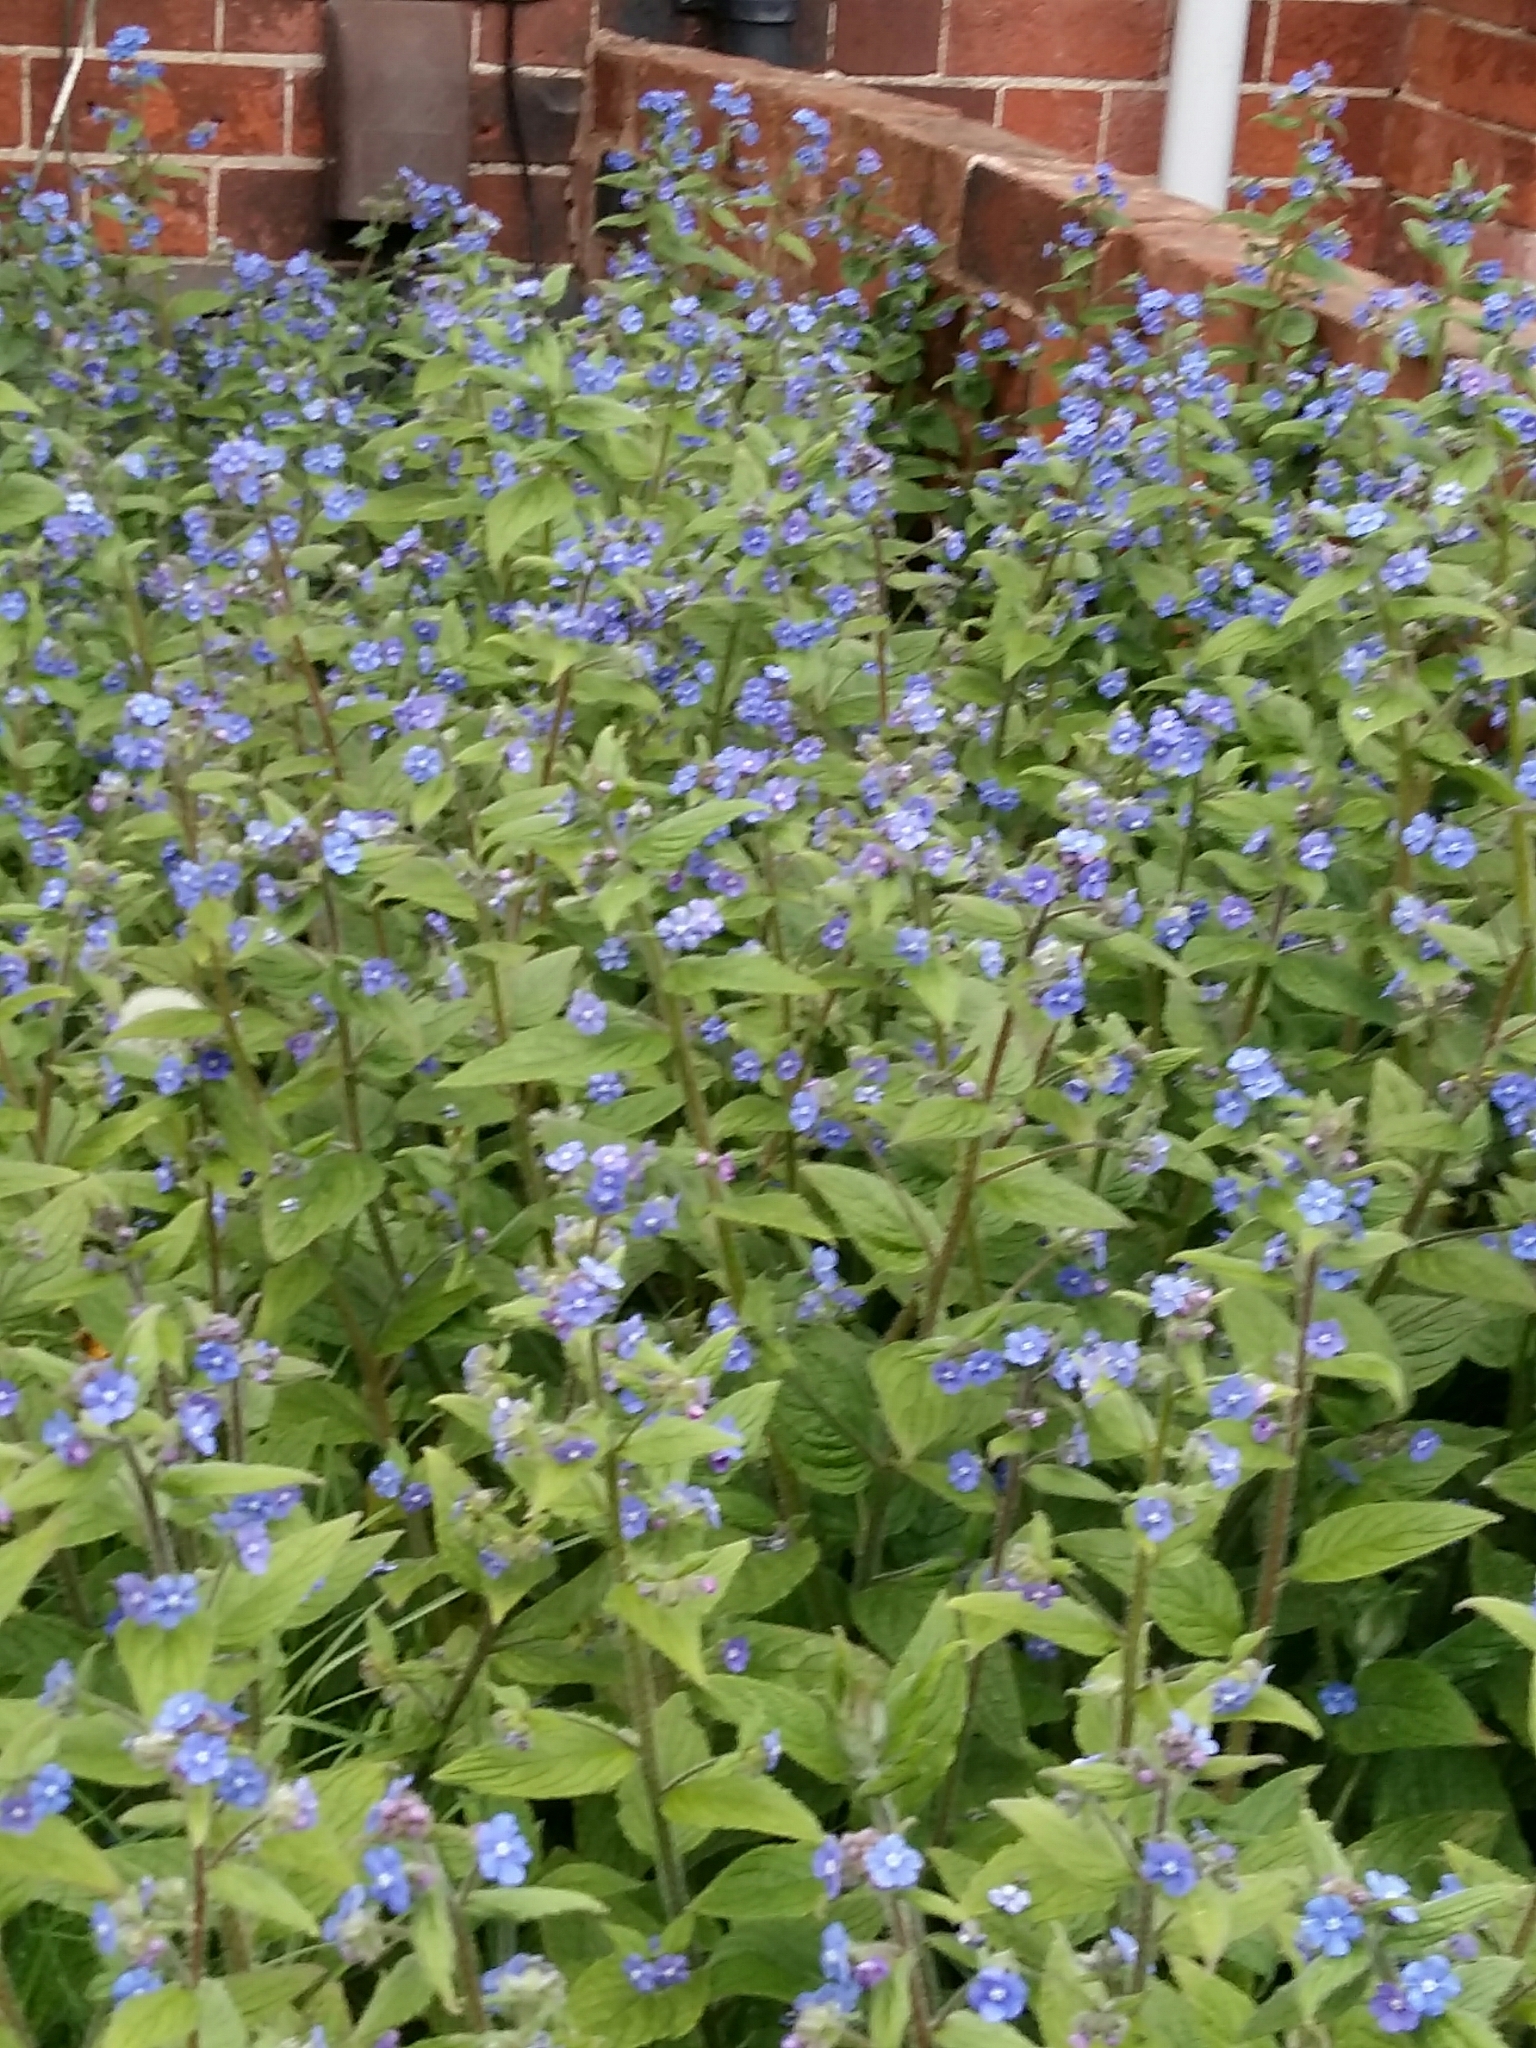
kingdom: Plantae
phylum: Tracheophyta
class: Magnoliopsida
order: Boraginales
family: Boraginaceae
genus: Pentaglottis
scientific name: Pentaglottis sempervirens
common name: Green alkanet
